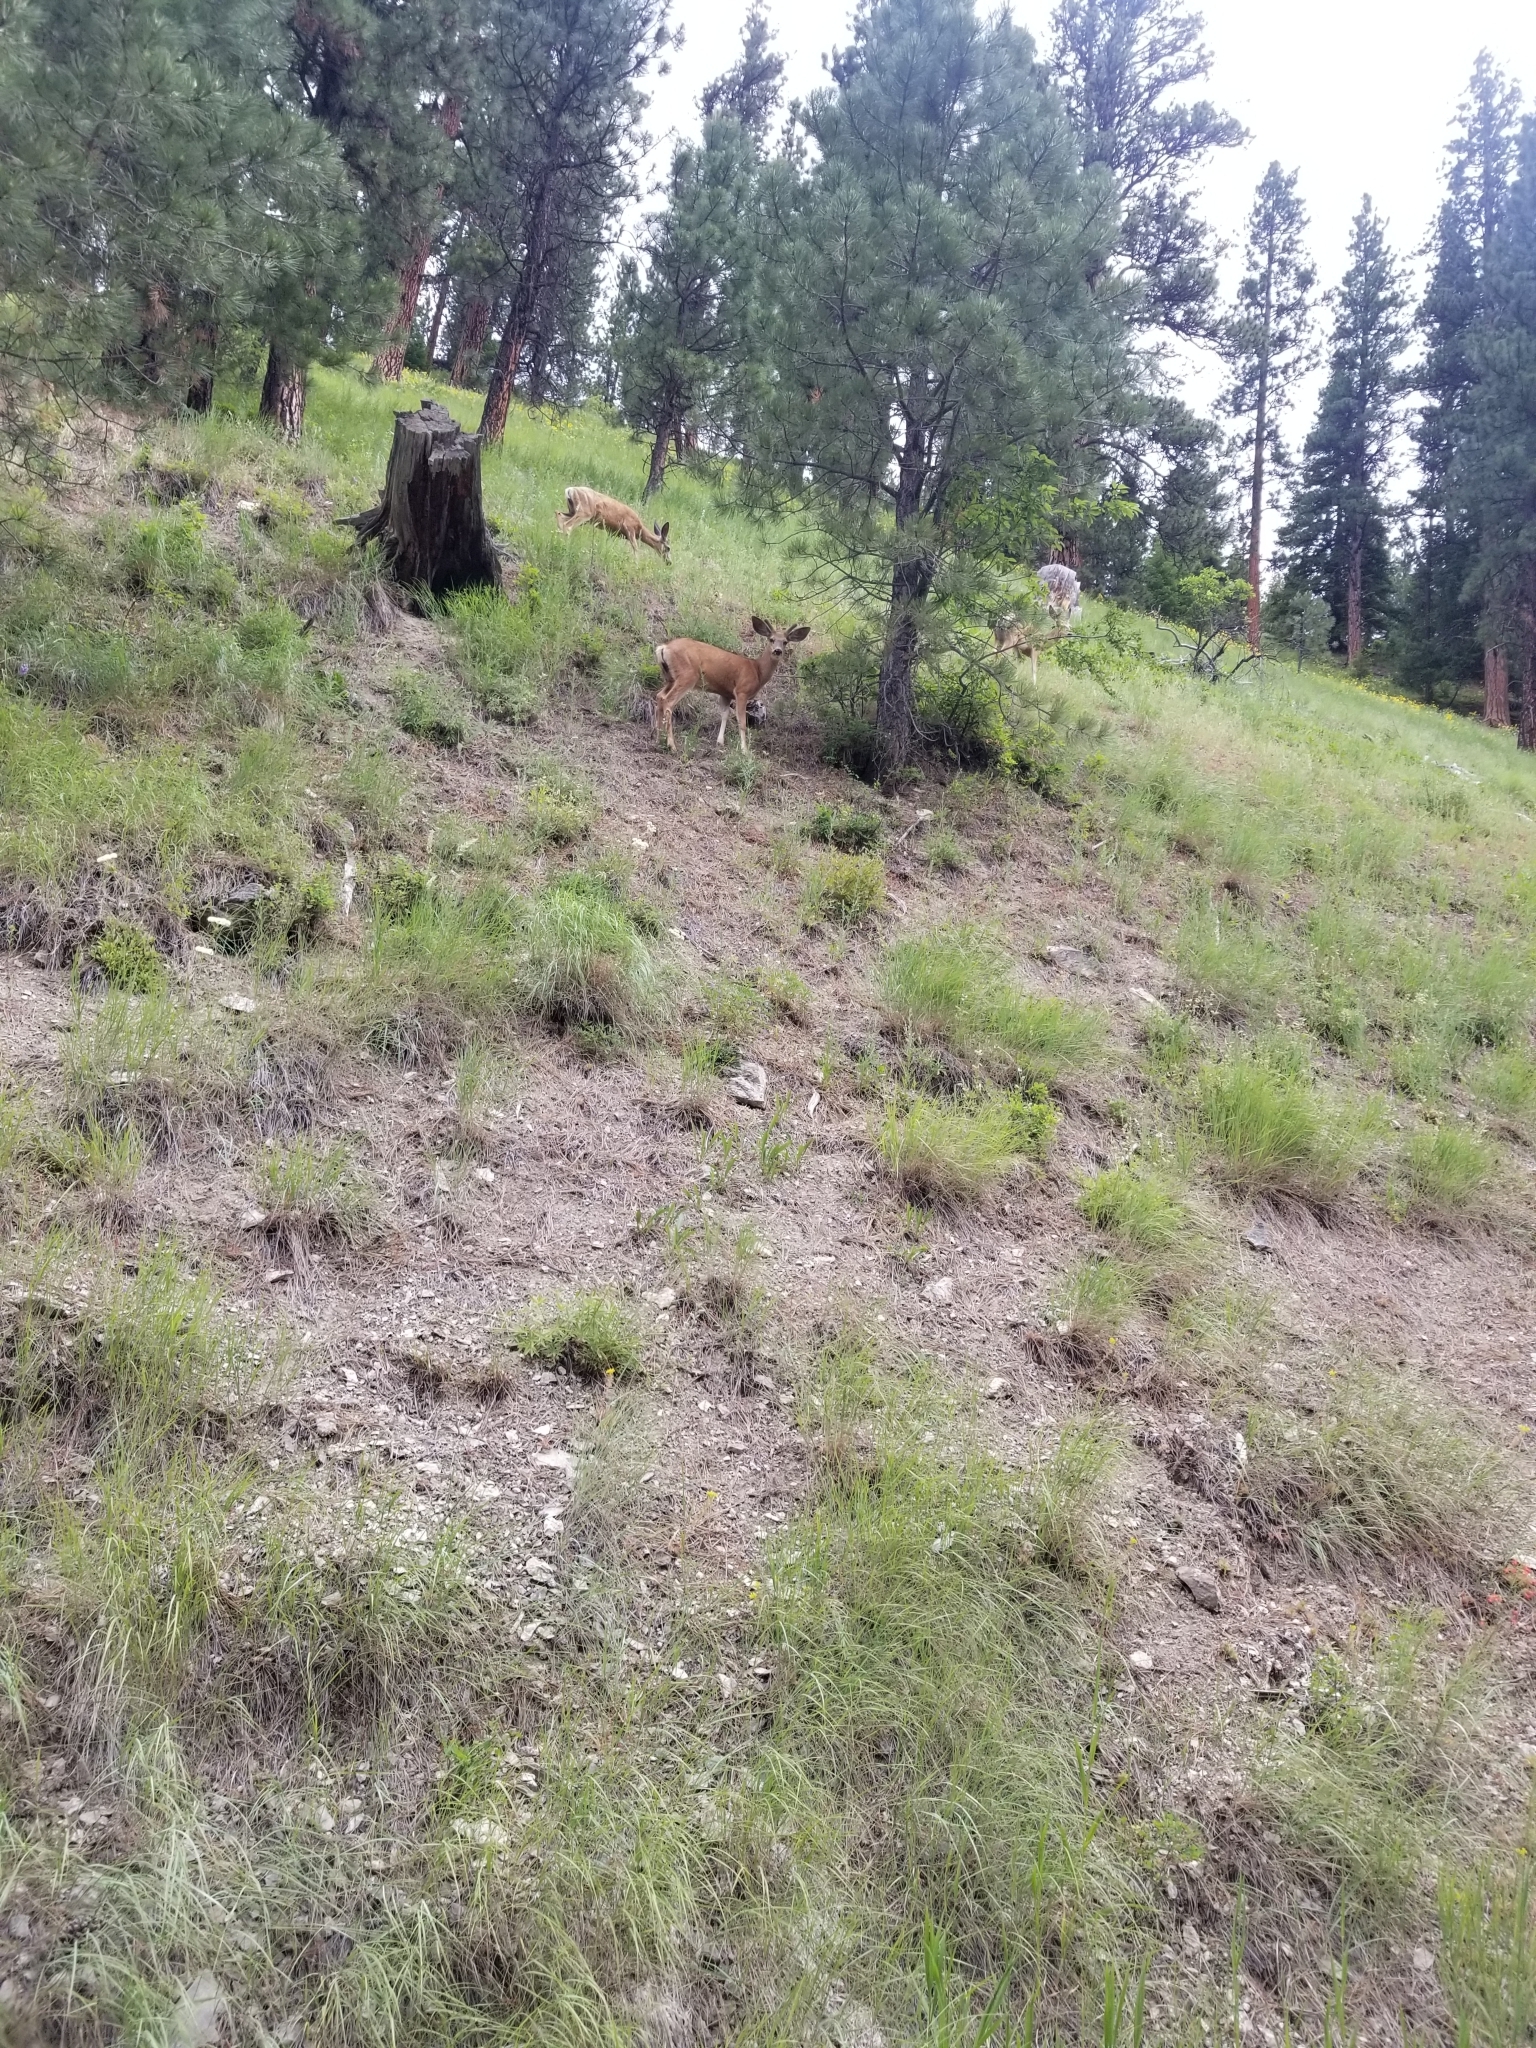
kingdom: Animalia
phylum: Chordata
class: Mammalia
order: Artiodactyla
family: Cervidae
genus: Odocoileus
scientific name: Odocoileus hemionus
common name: Mule deer
